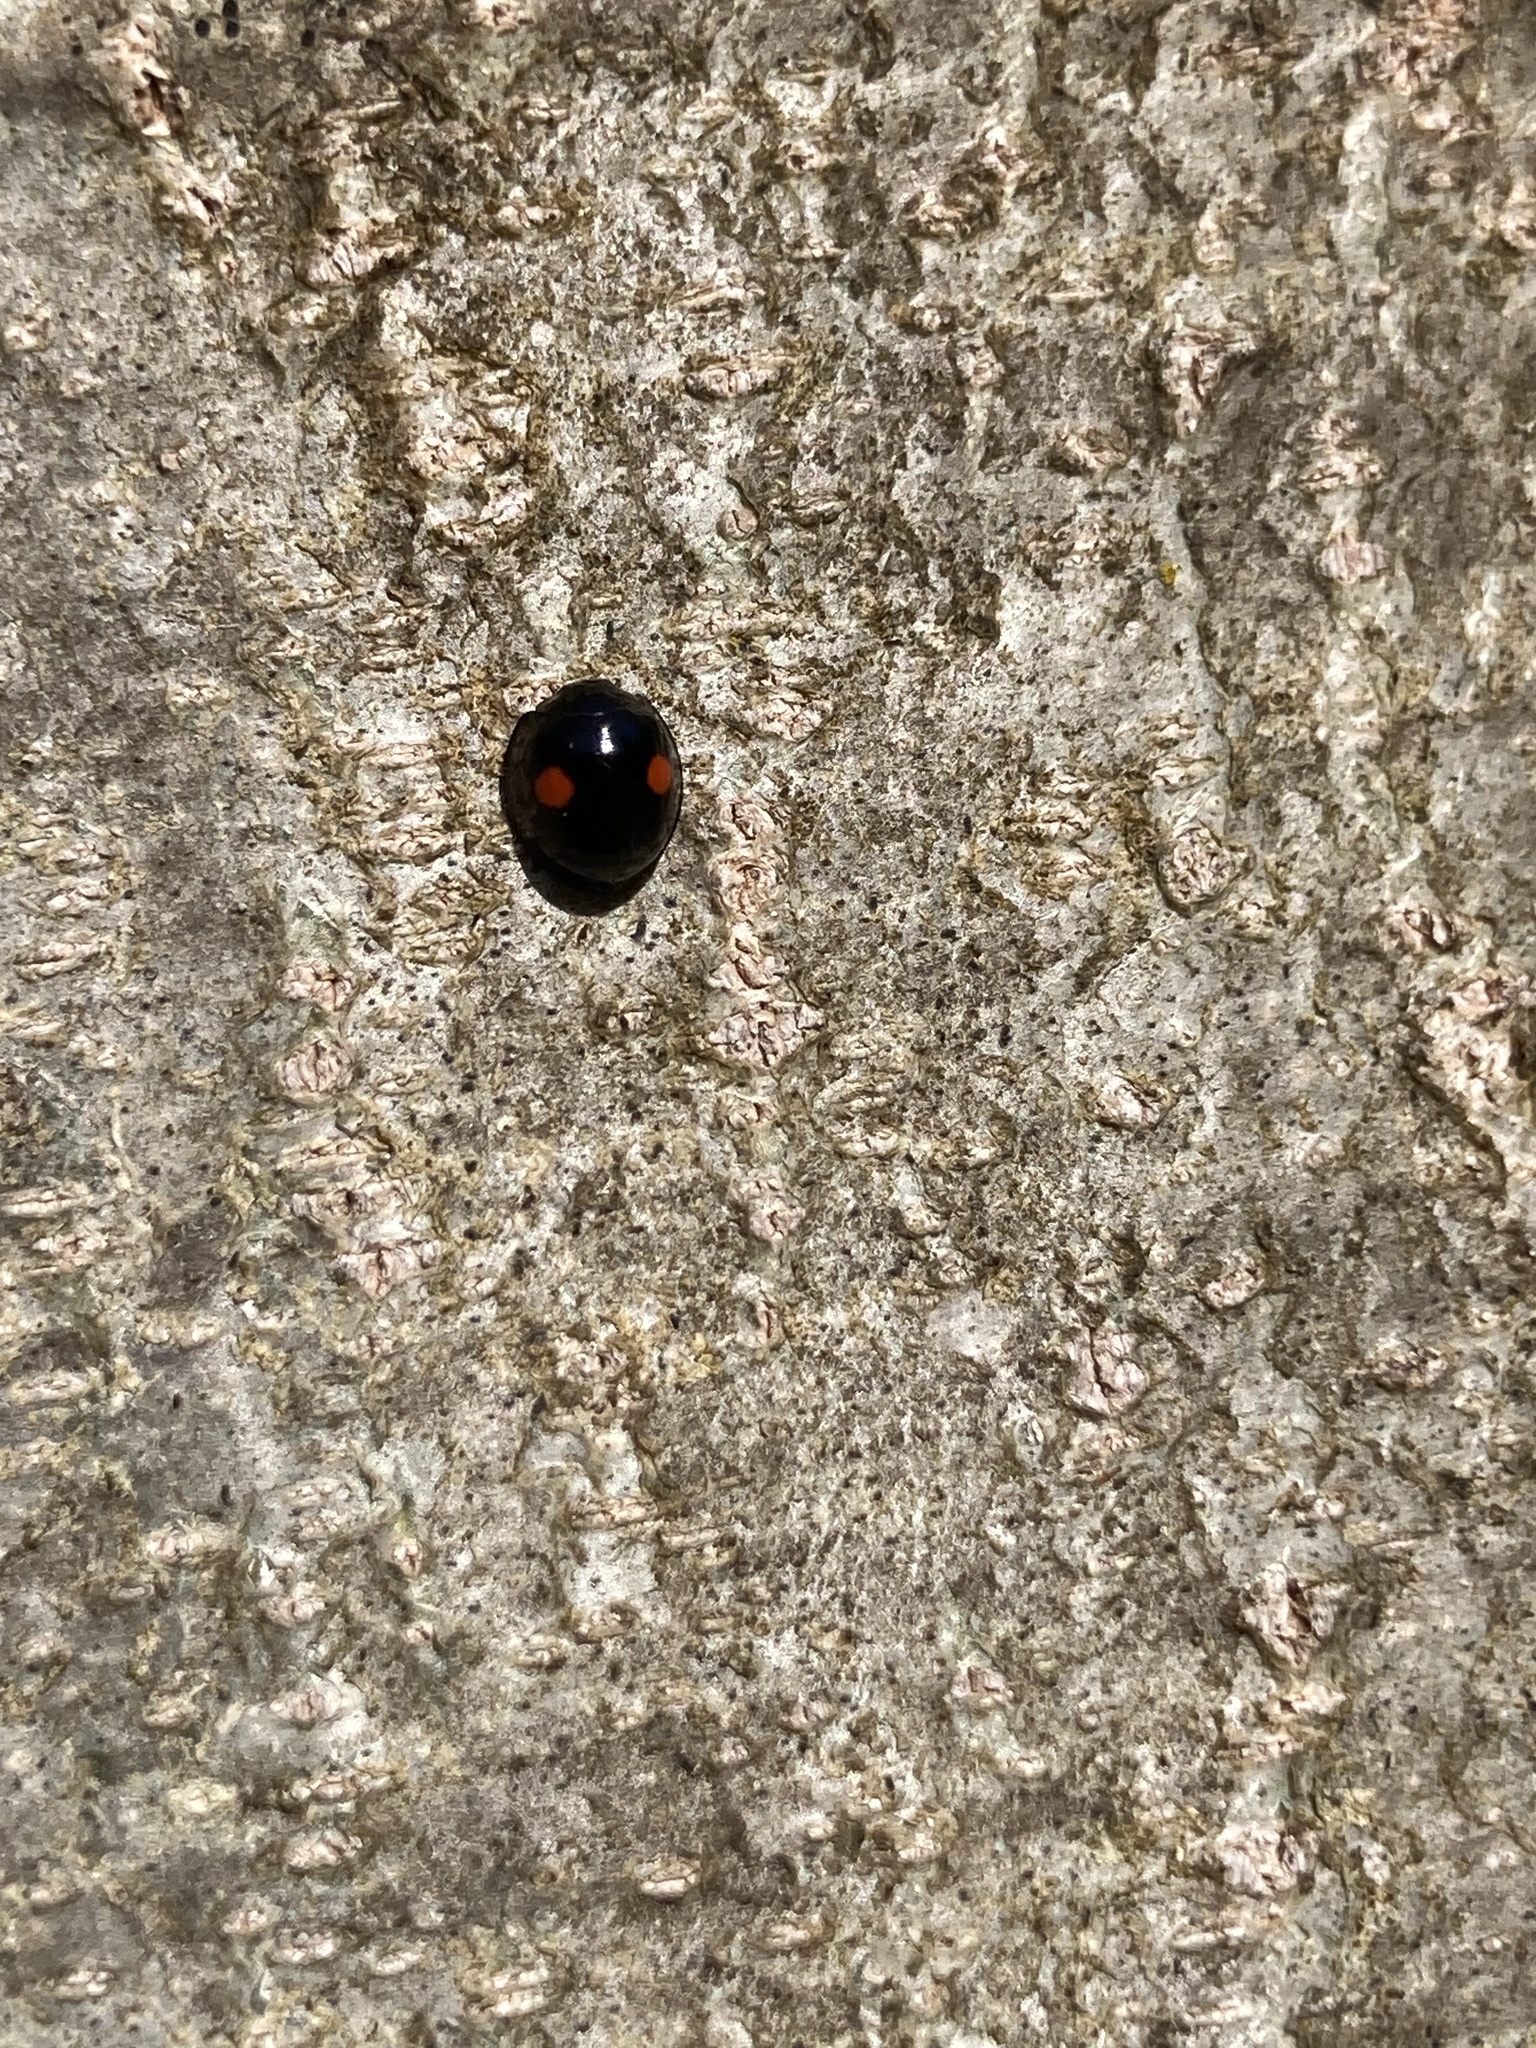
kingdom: Animalia
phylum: Arthropoda
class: Insecta
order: Coleoptera
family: Coccinellidae
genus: Chilocorus
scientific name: Chilocorus stigma
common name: Twicestabbed lady beetle
